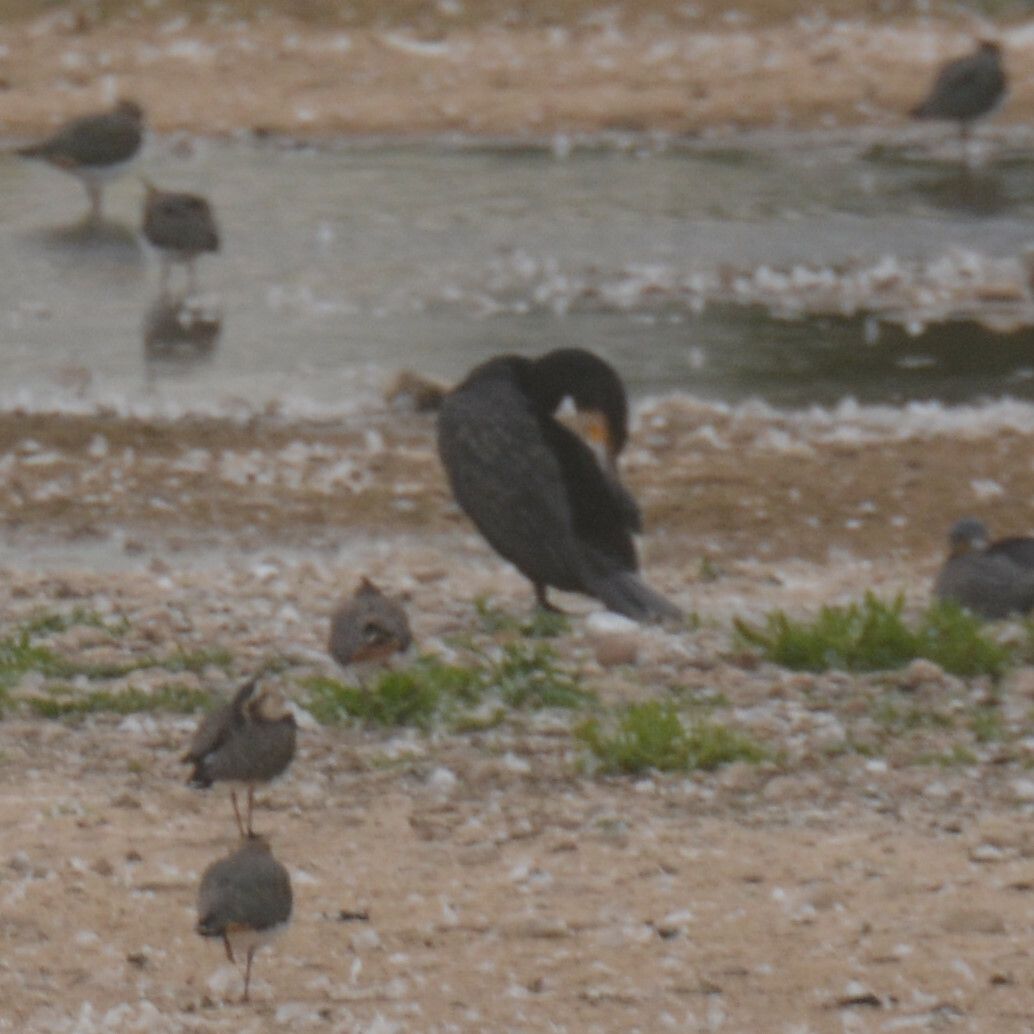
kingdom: Animalia
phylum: Chordata
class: Aves
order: Suliformes
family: Phalacrocoracidae
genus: Phalacrocorax
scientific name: Phalacrocorax carbo
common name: Great cormorant
